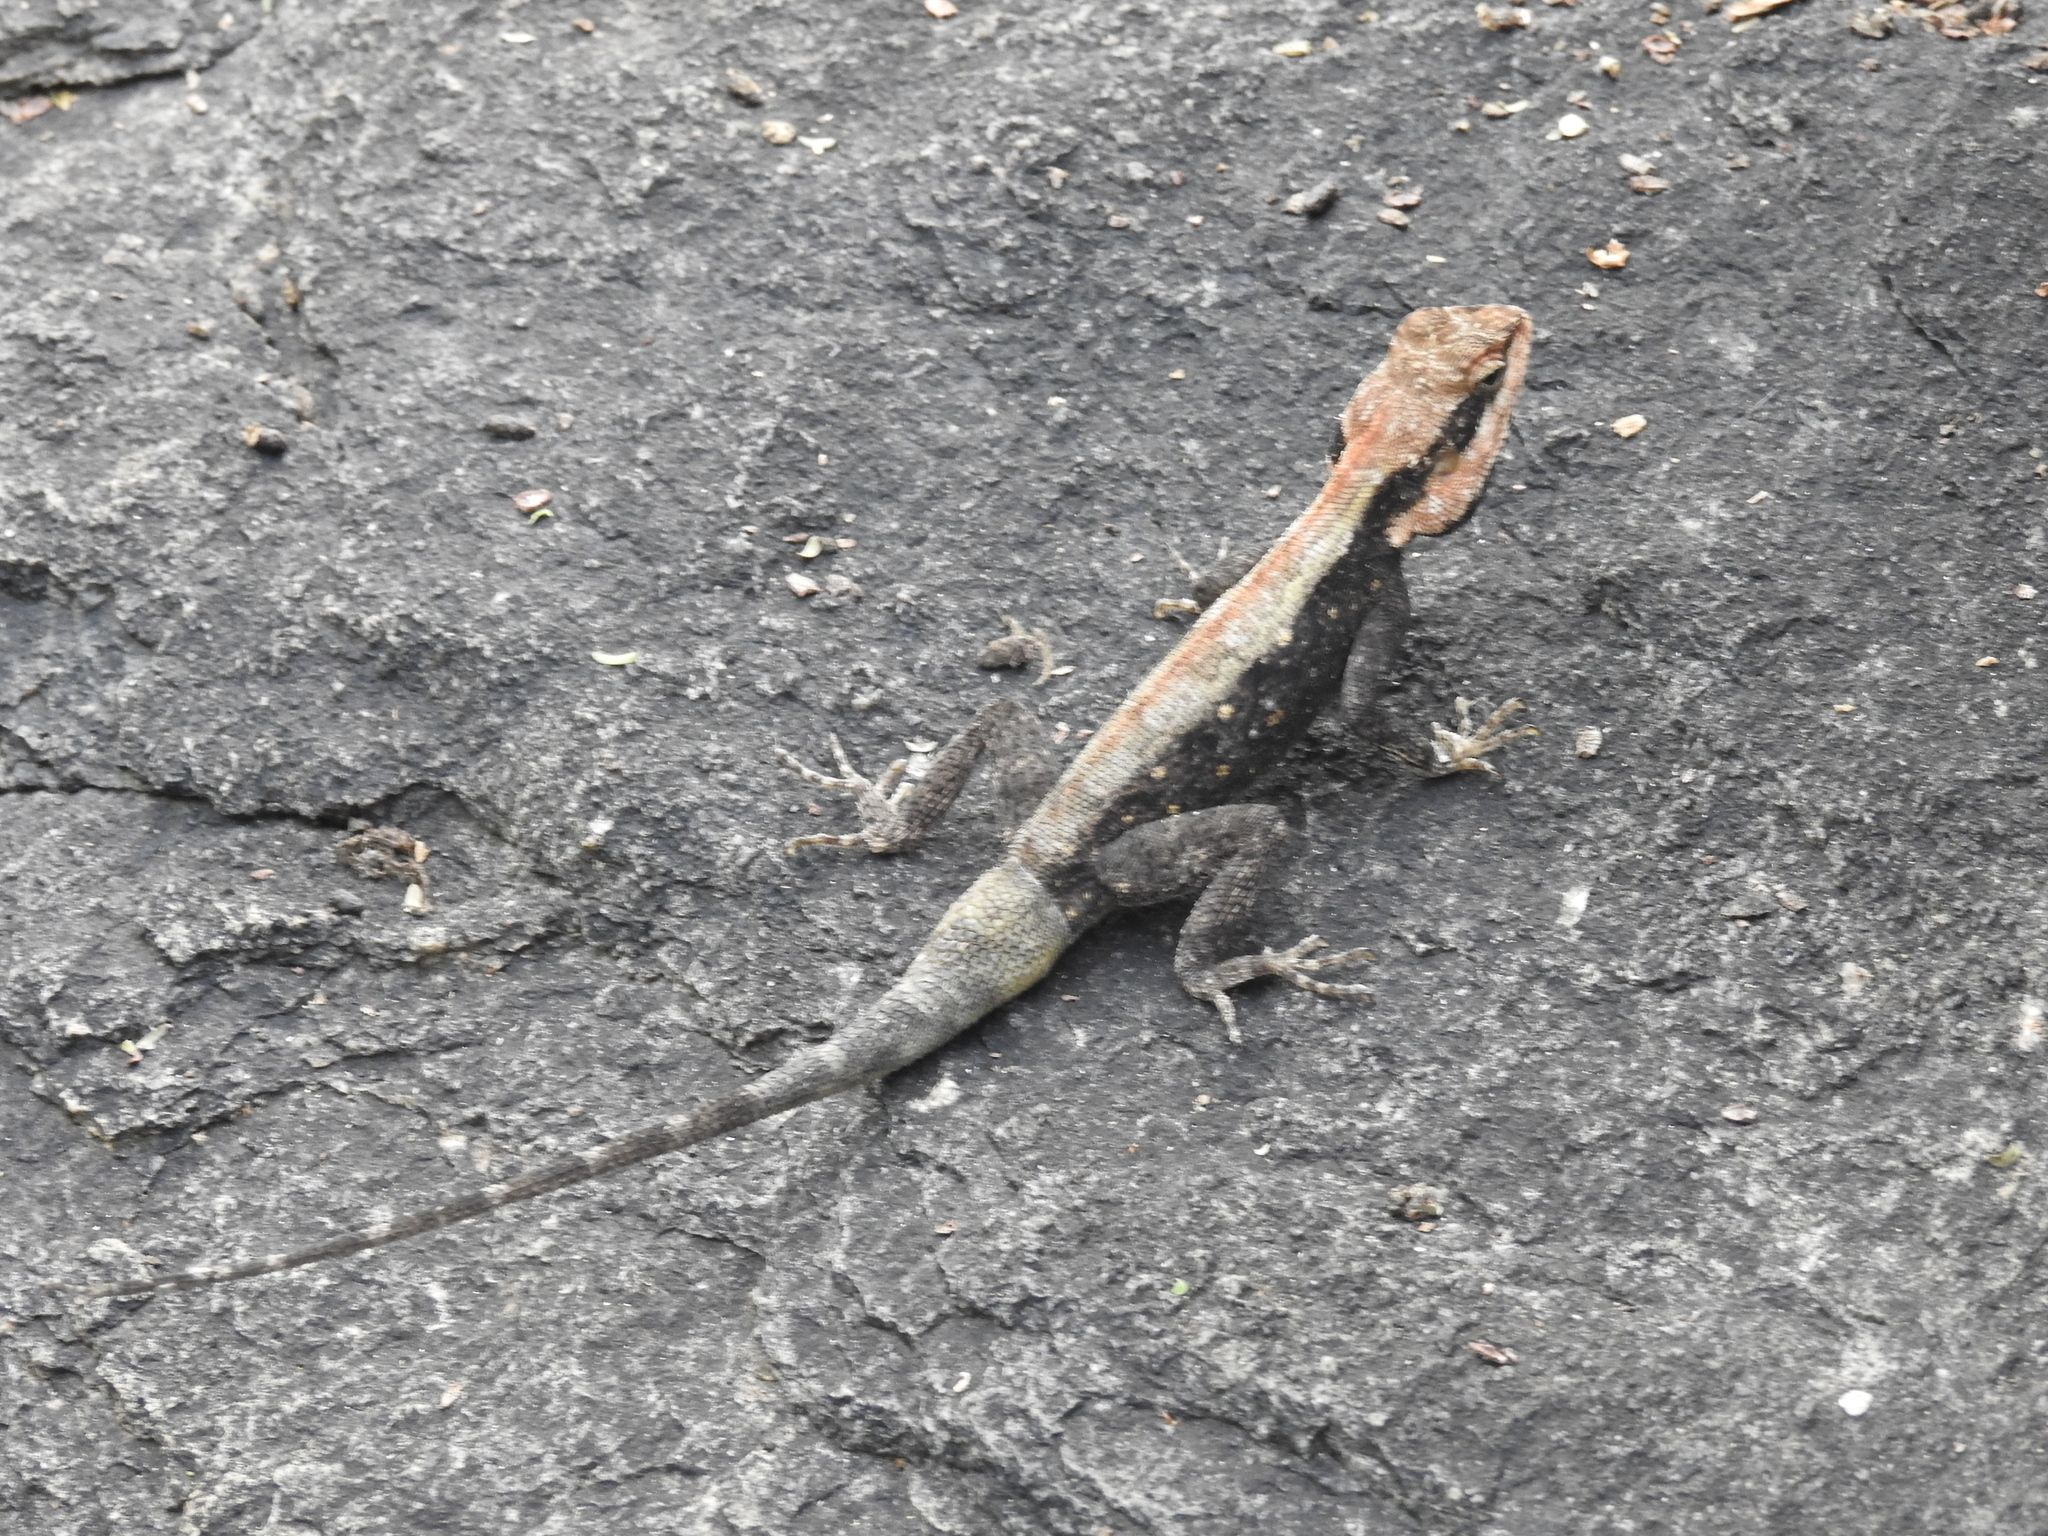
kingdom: Animalia
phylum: Chordata
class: Squamata
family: Agamidae
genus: Psammophilus
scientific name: Psammophilus dorsalis
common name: South indian rock agama
